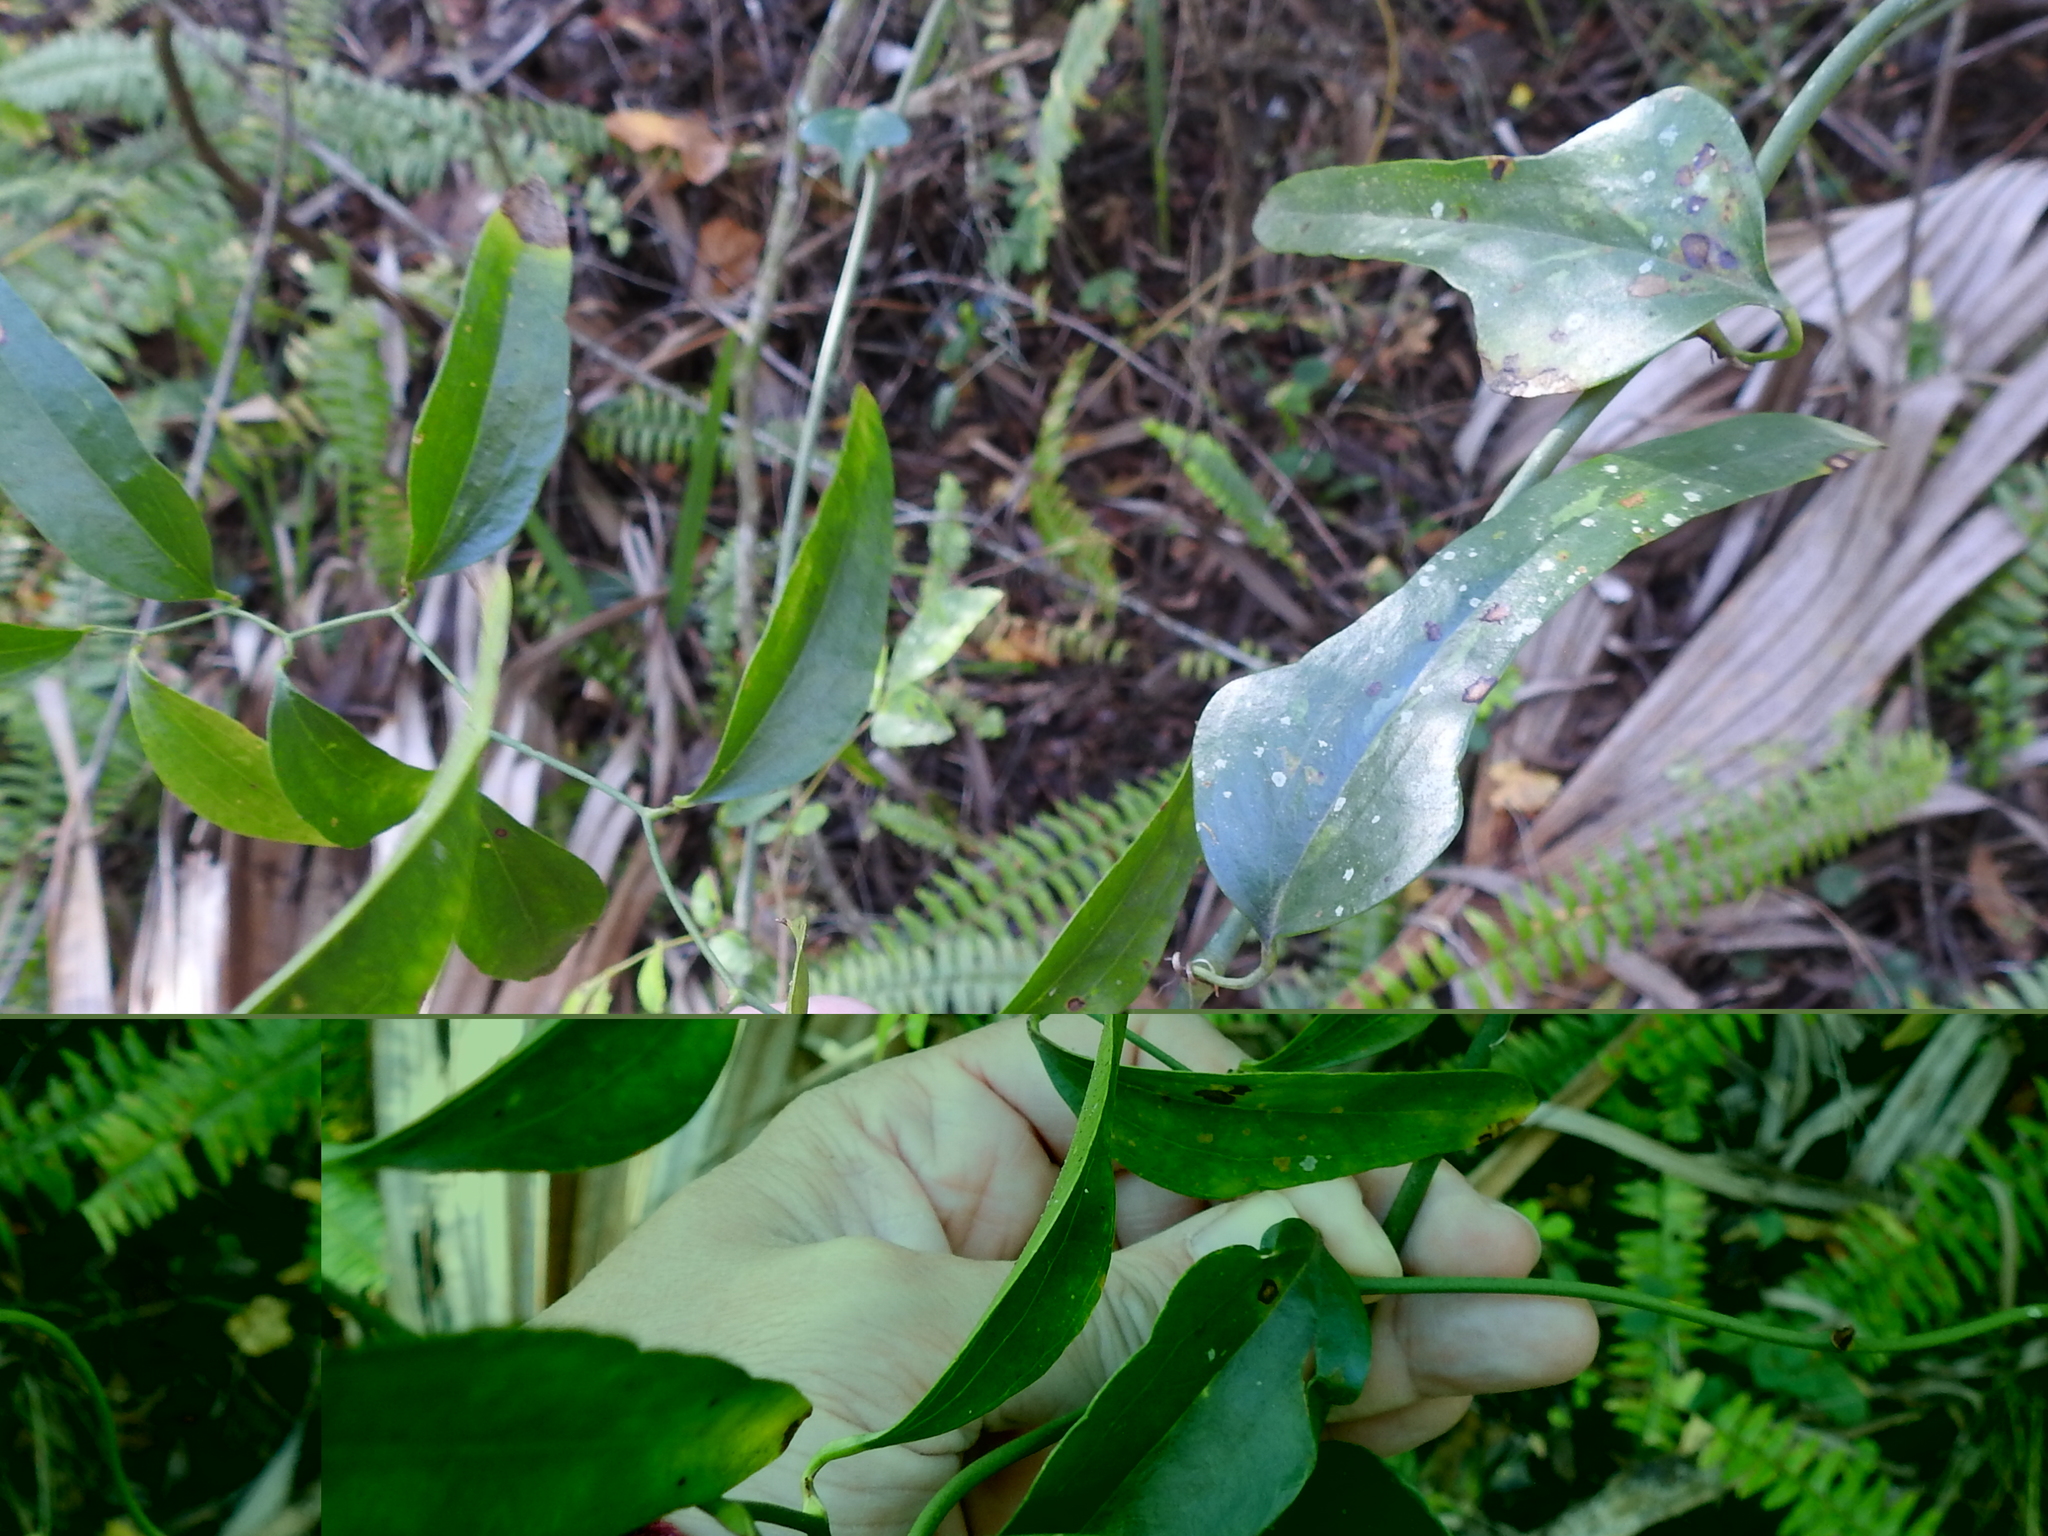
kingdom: Plantae
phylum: Tracheophyta
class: Liliopsida
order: Liliales
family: Smilacaceae
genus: Smilax
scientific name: Smilax auriculata
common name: Wild bamboo
